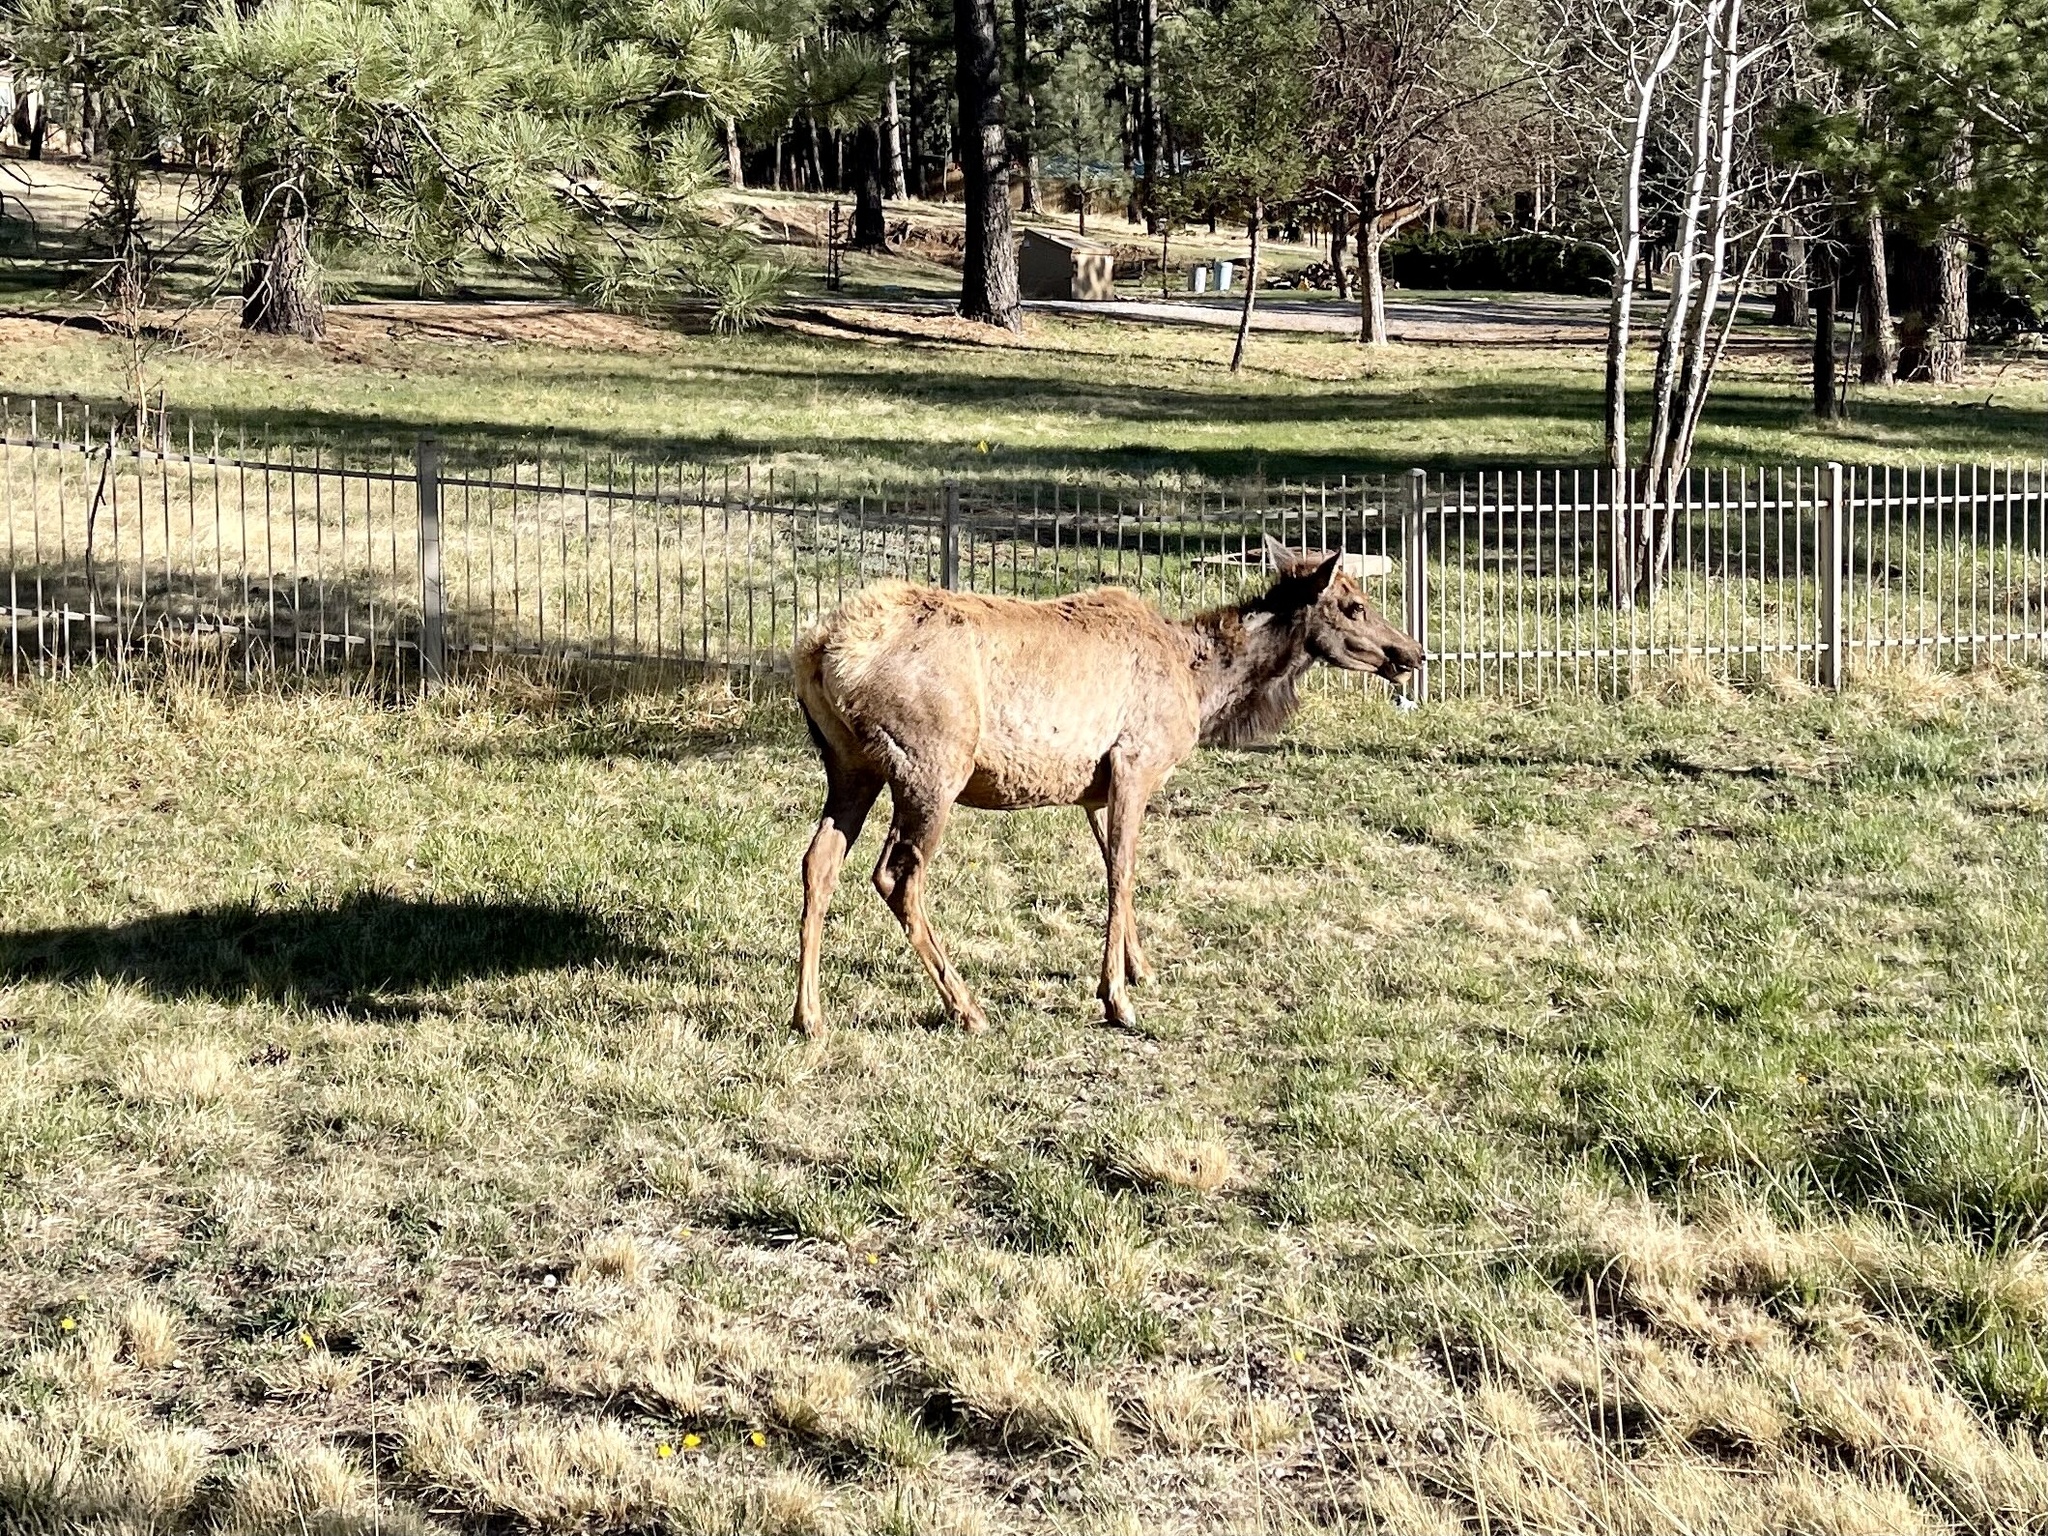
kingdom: Animalia
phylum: Chordata
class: Mammalia
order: Artiodactyla
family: Cervidae
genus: Cervus
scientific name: Cervus elaphus
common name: Red deer
